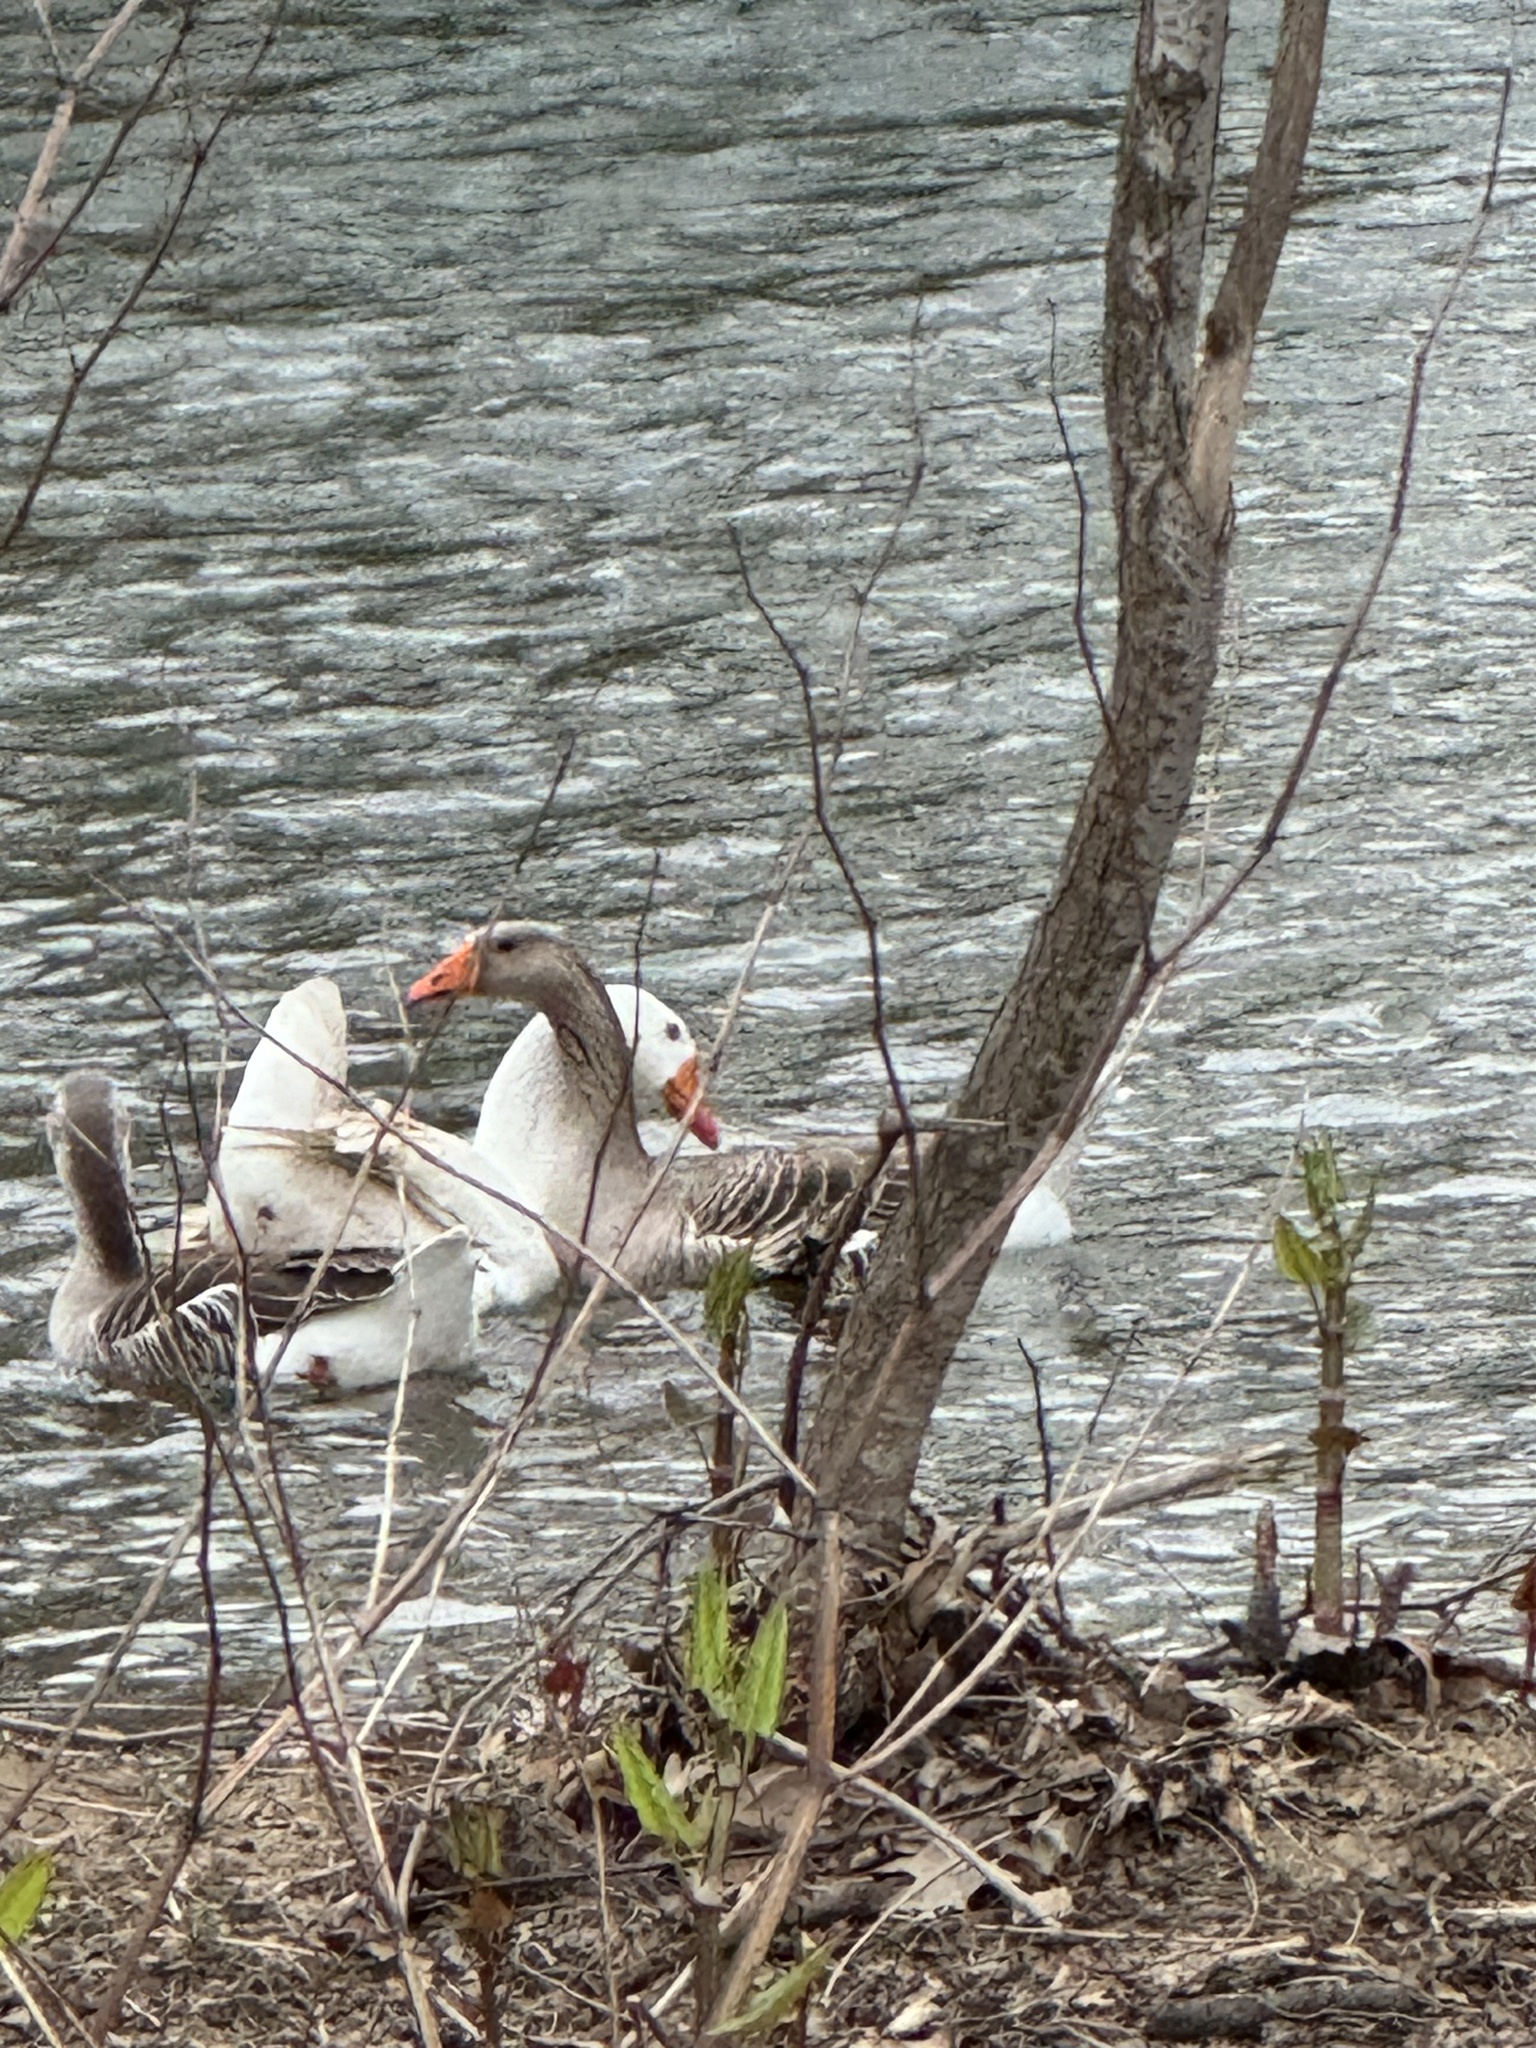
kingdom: Animalia
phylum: Chordata
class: Aves
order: Anseriformes
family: Anatidae
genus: Anser
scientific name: Anser anser
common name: Greylag goose
